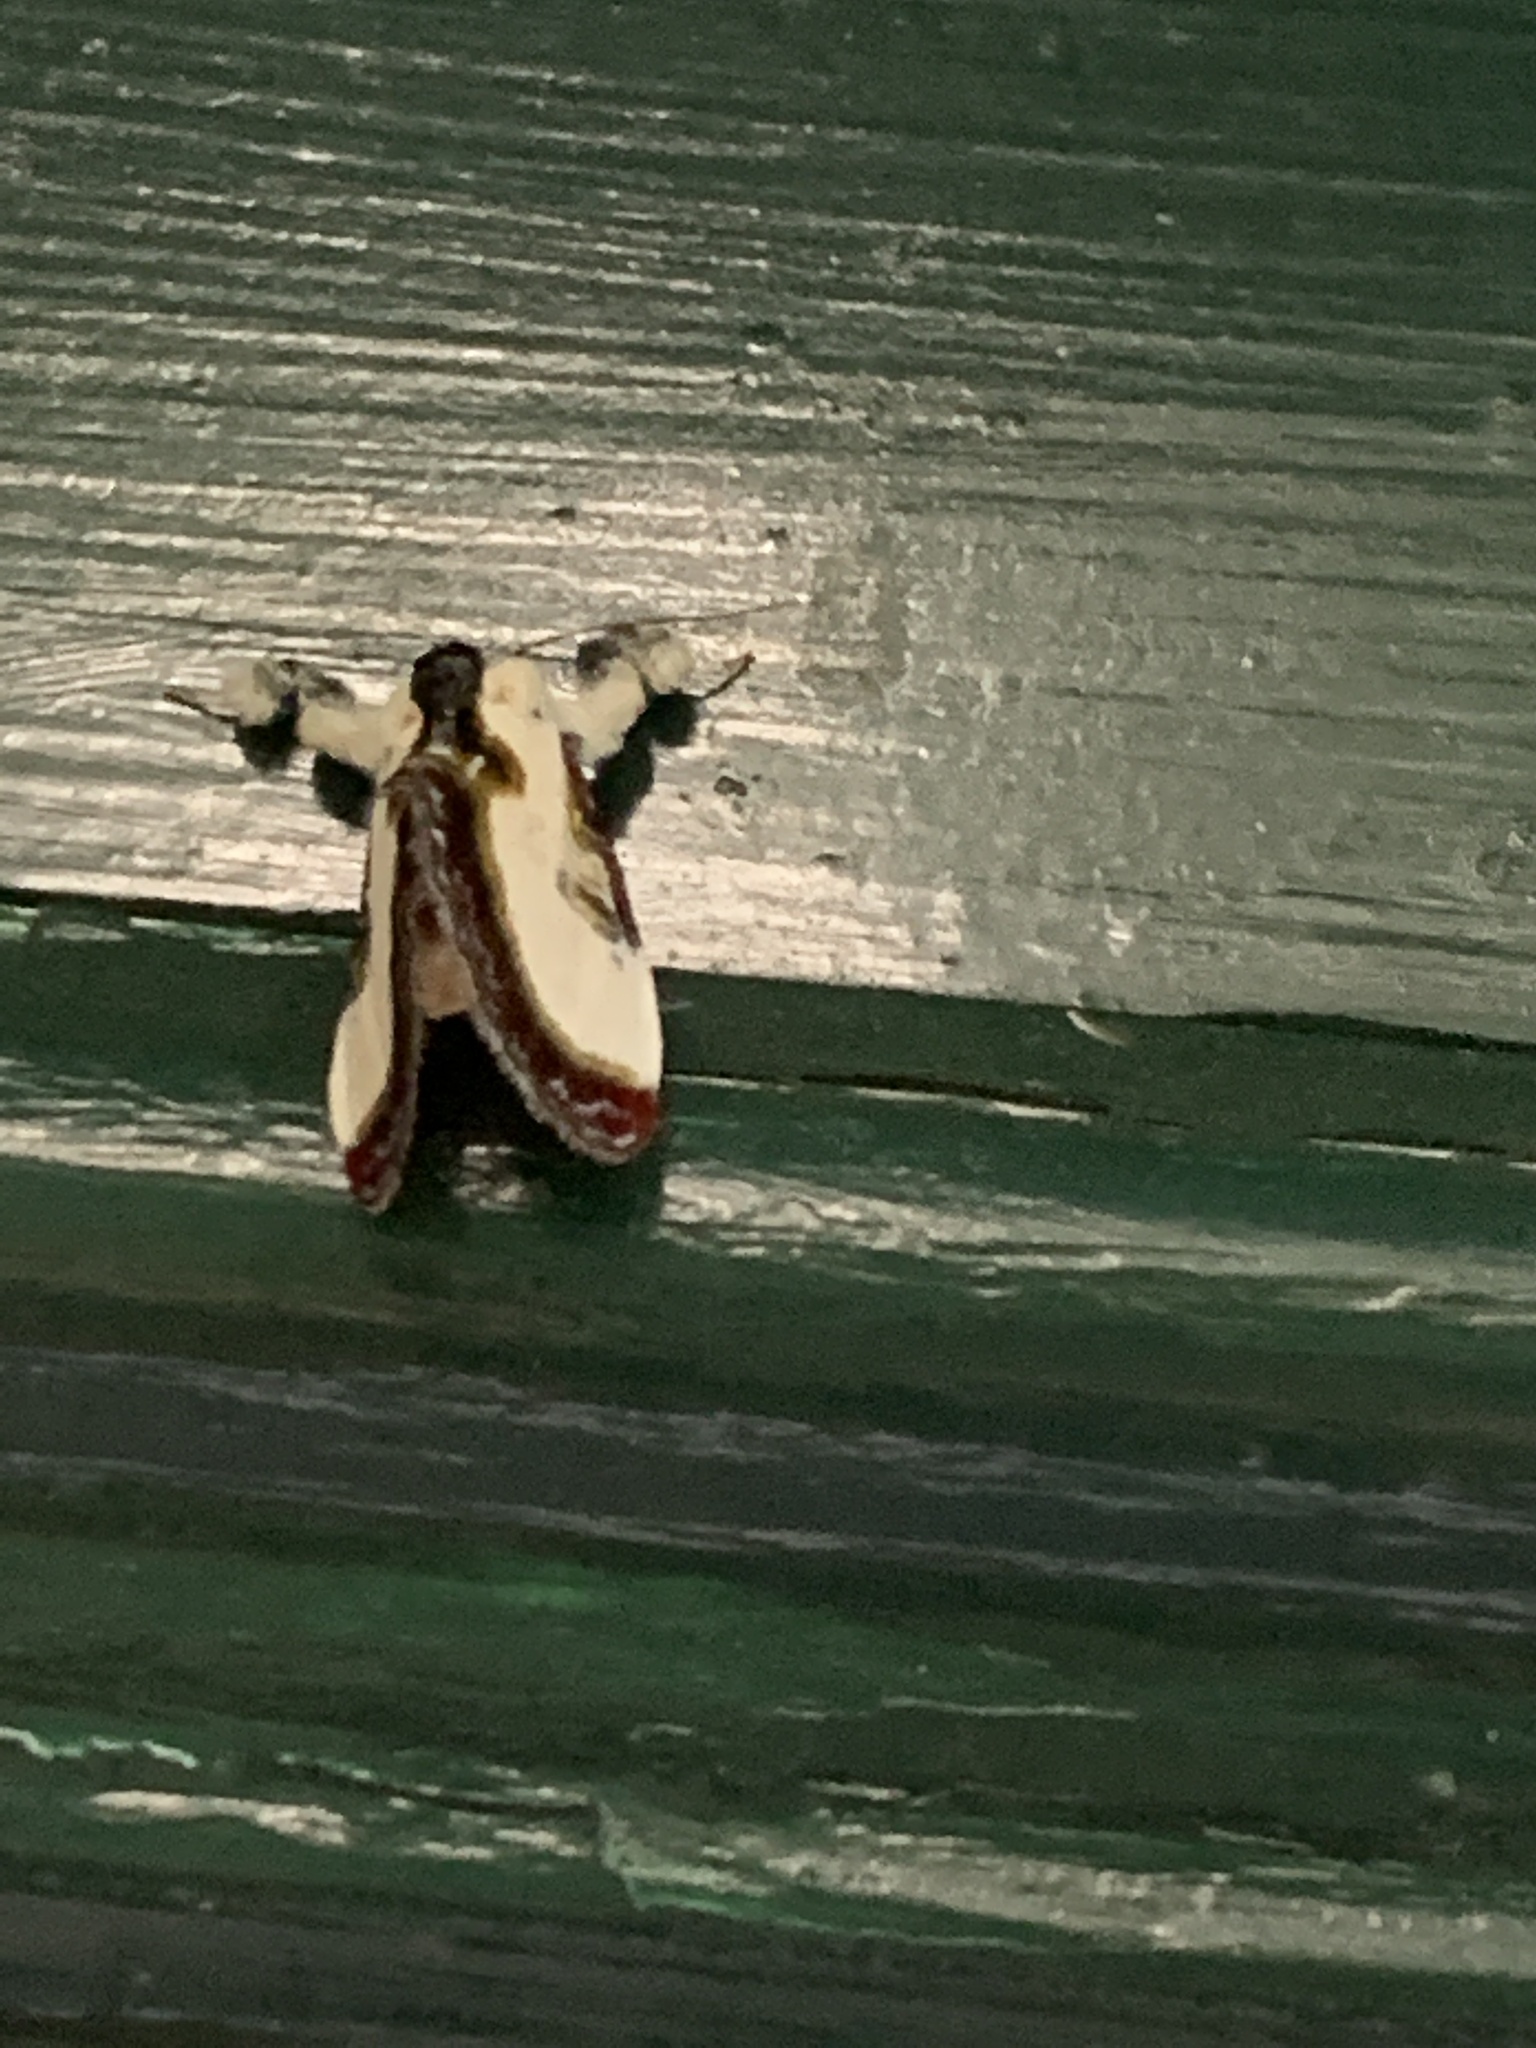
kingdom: Animalia
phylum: Arthropoda
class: Insecta
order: Lepidoptera
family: Noctuidae
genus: Eudryas
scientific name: Eudryas grata
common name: Beautiful wood-nymph
